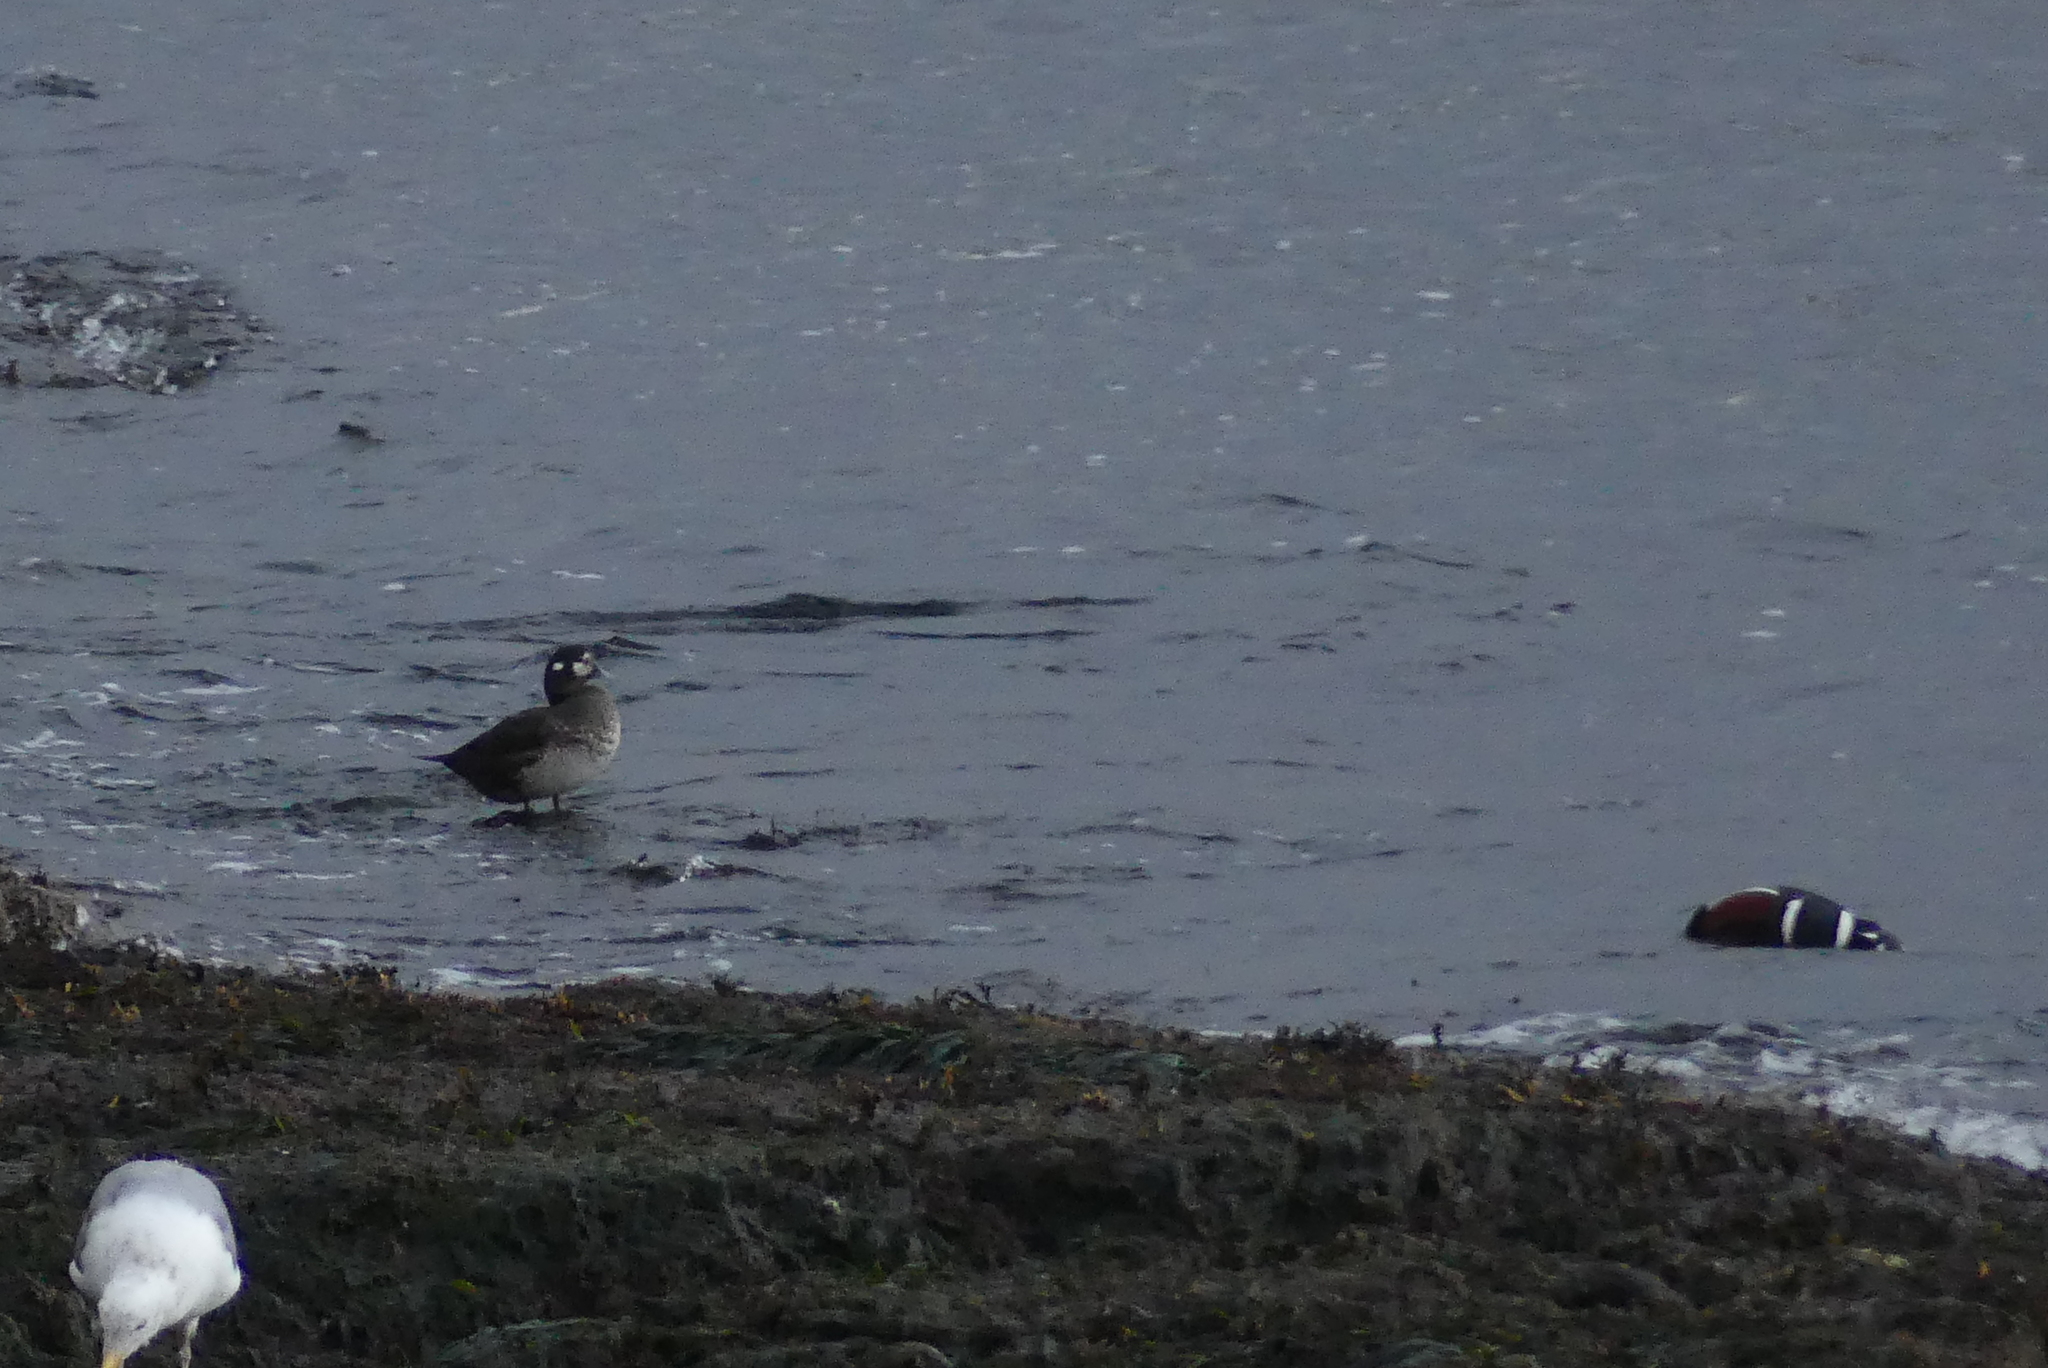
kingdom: Animalia
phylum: Chordata
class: Aves
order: Anseriformes
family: Anatidae
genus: Histrionicus
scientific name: Histrionicus histrionicus
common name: Harlequin duck
